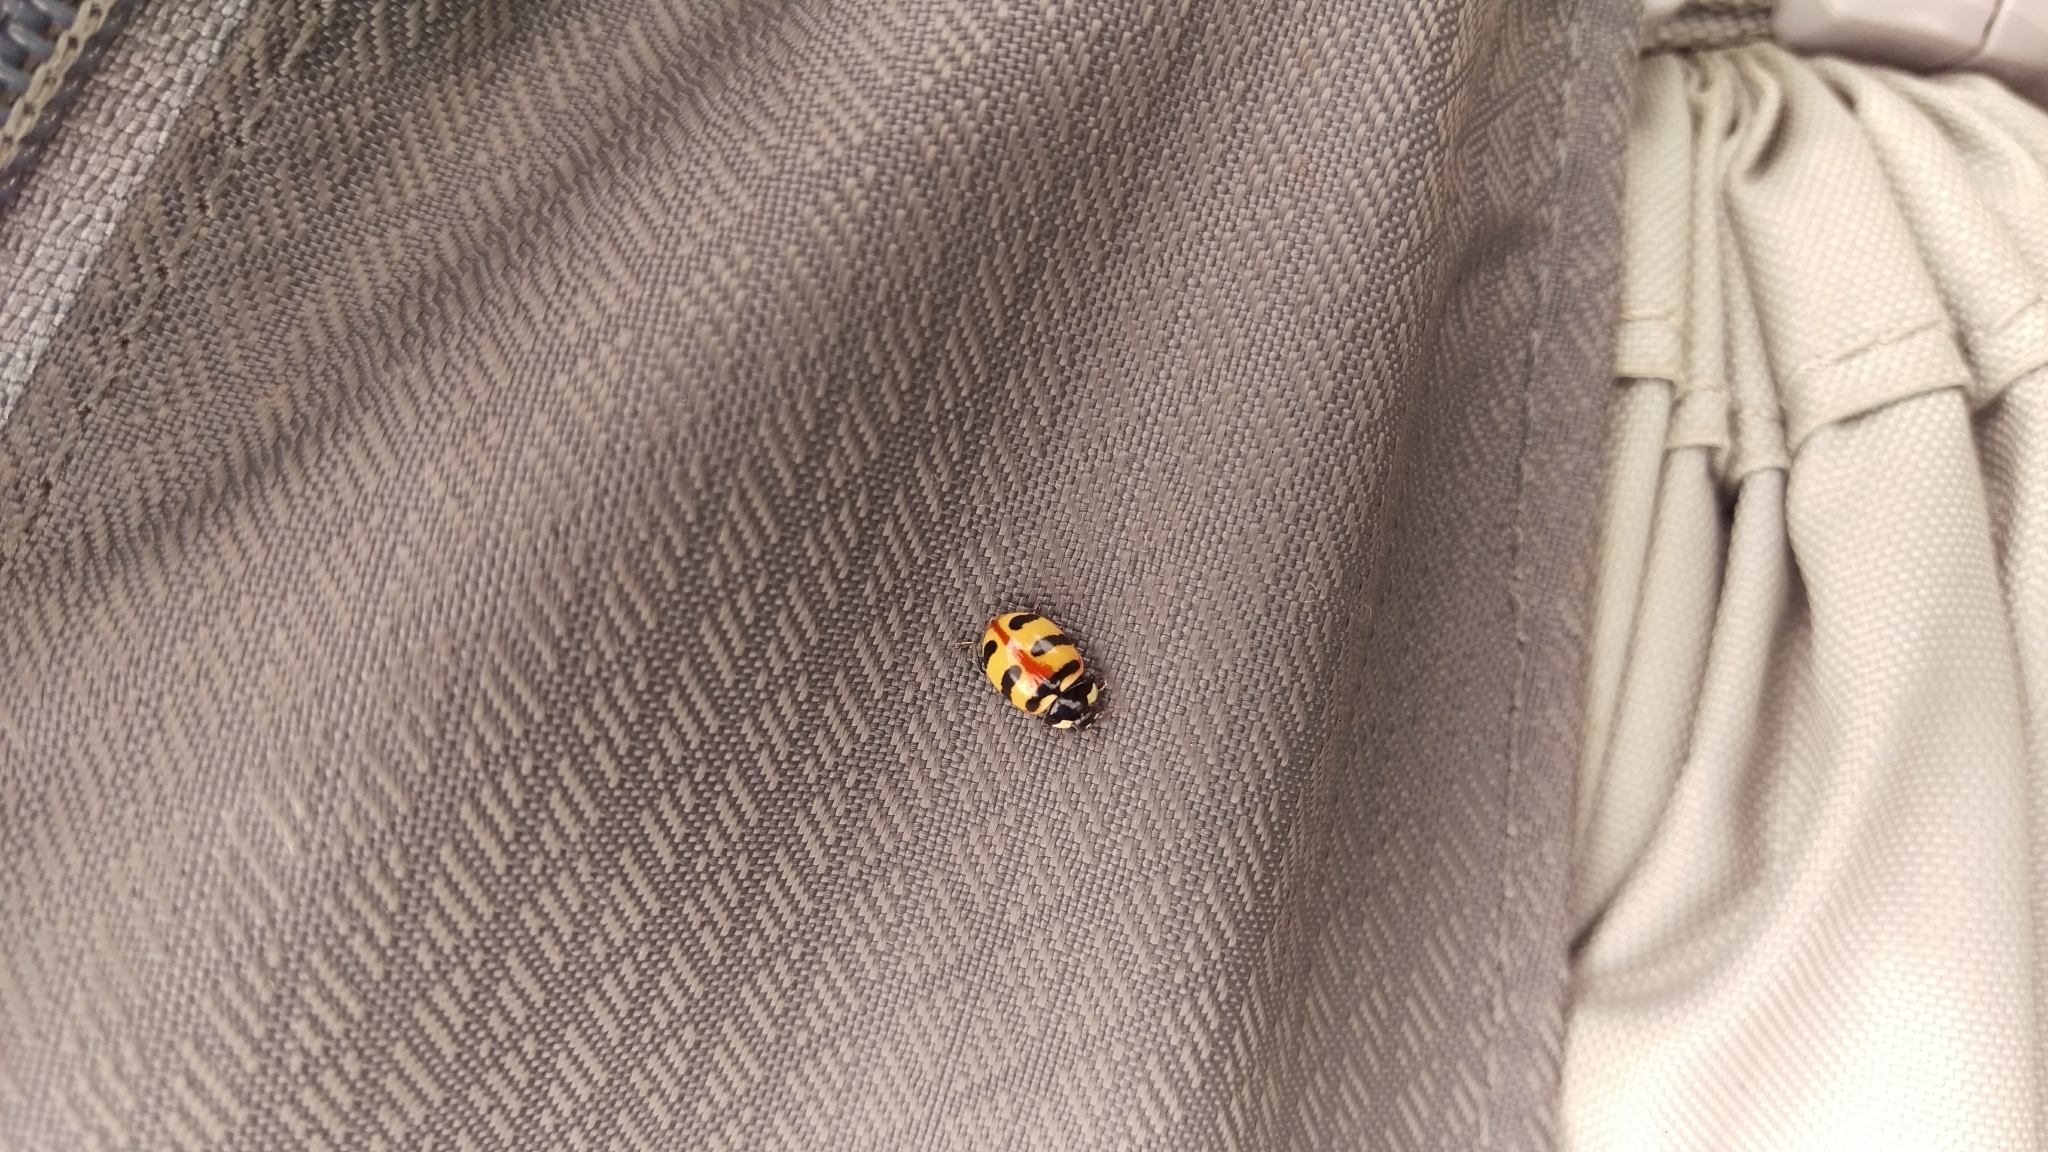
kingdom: Animalia
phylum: Arthropoda
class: Insecta
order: Coleoptera
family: Coccinellidae
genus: Coccinella
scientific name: Coccinella trifasciata
